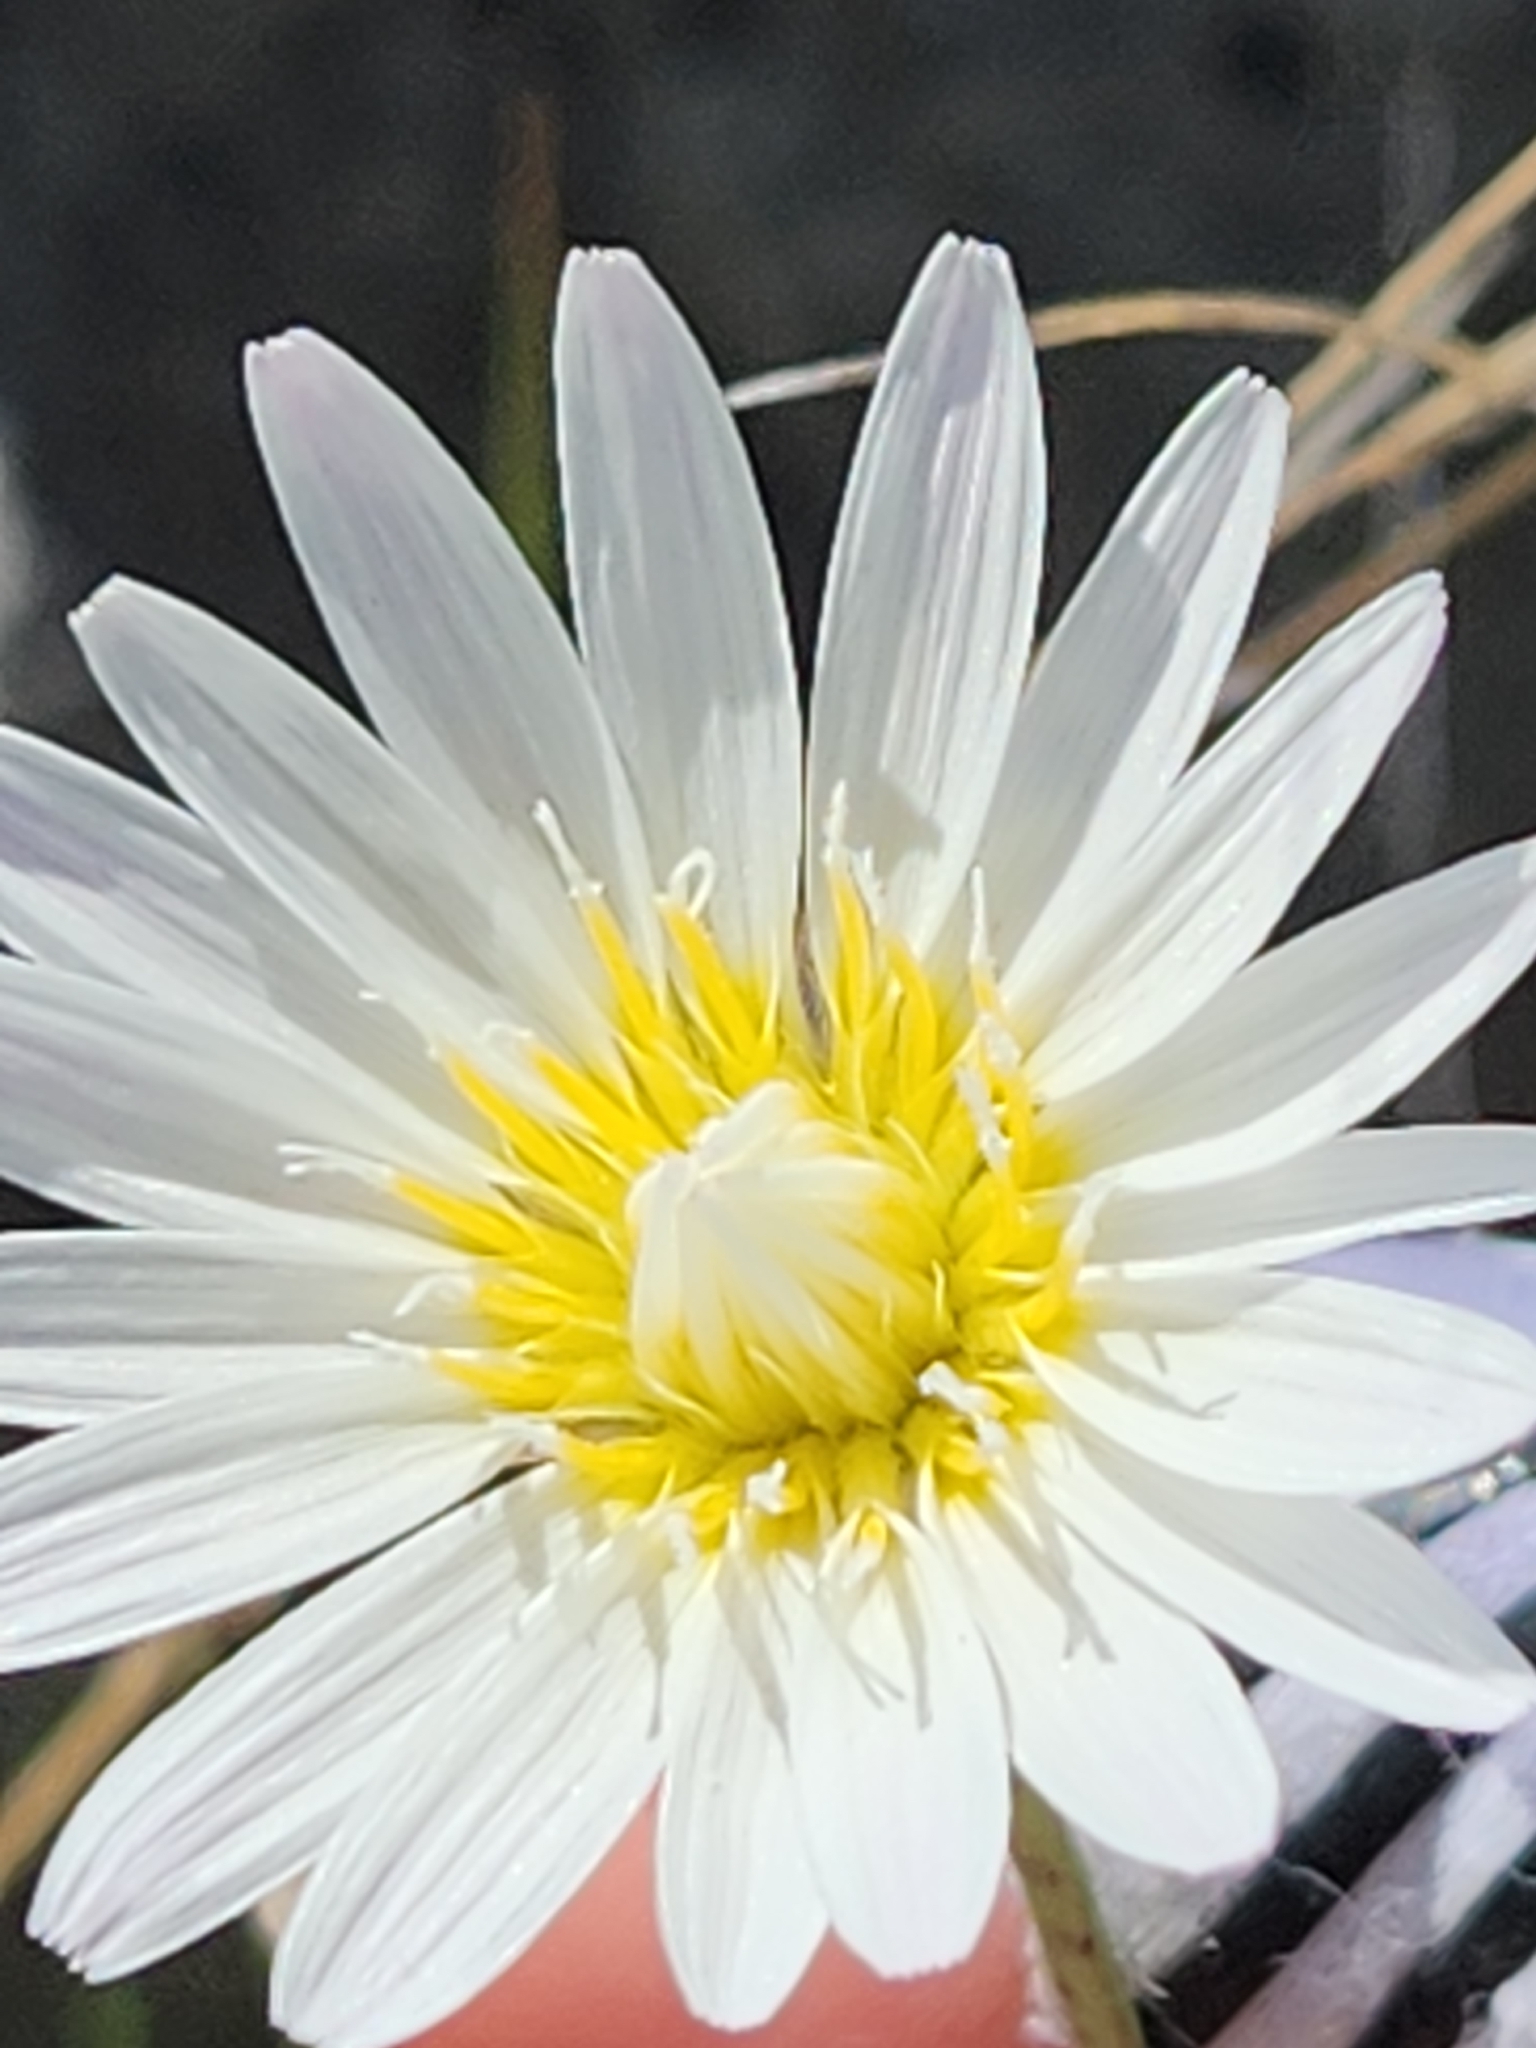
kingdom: Plantae
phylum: Tracheophyta
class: Magnoliopsida
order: Asterales
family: Asteraceae
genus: Pinaropappus
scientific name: Pinaropappus roseus
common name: Rock-lettuce
